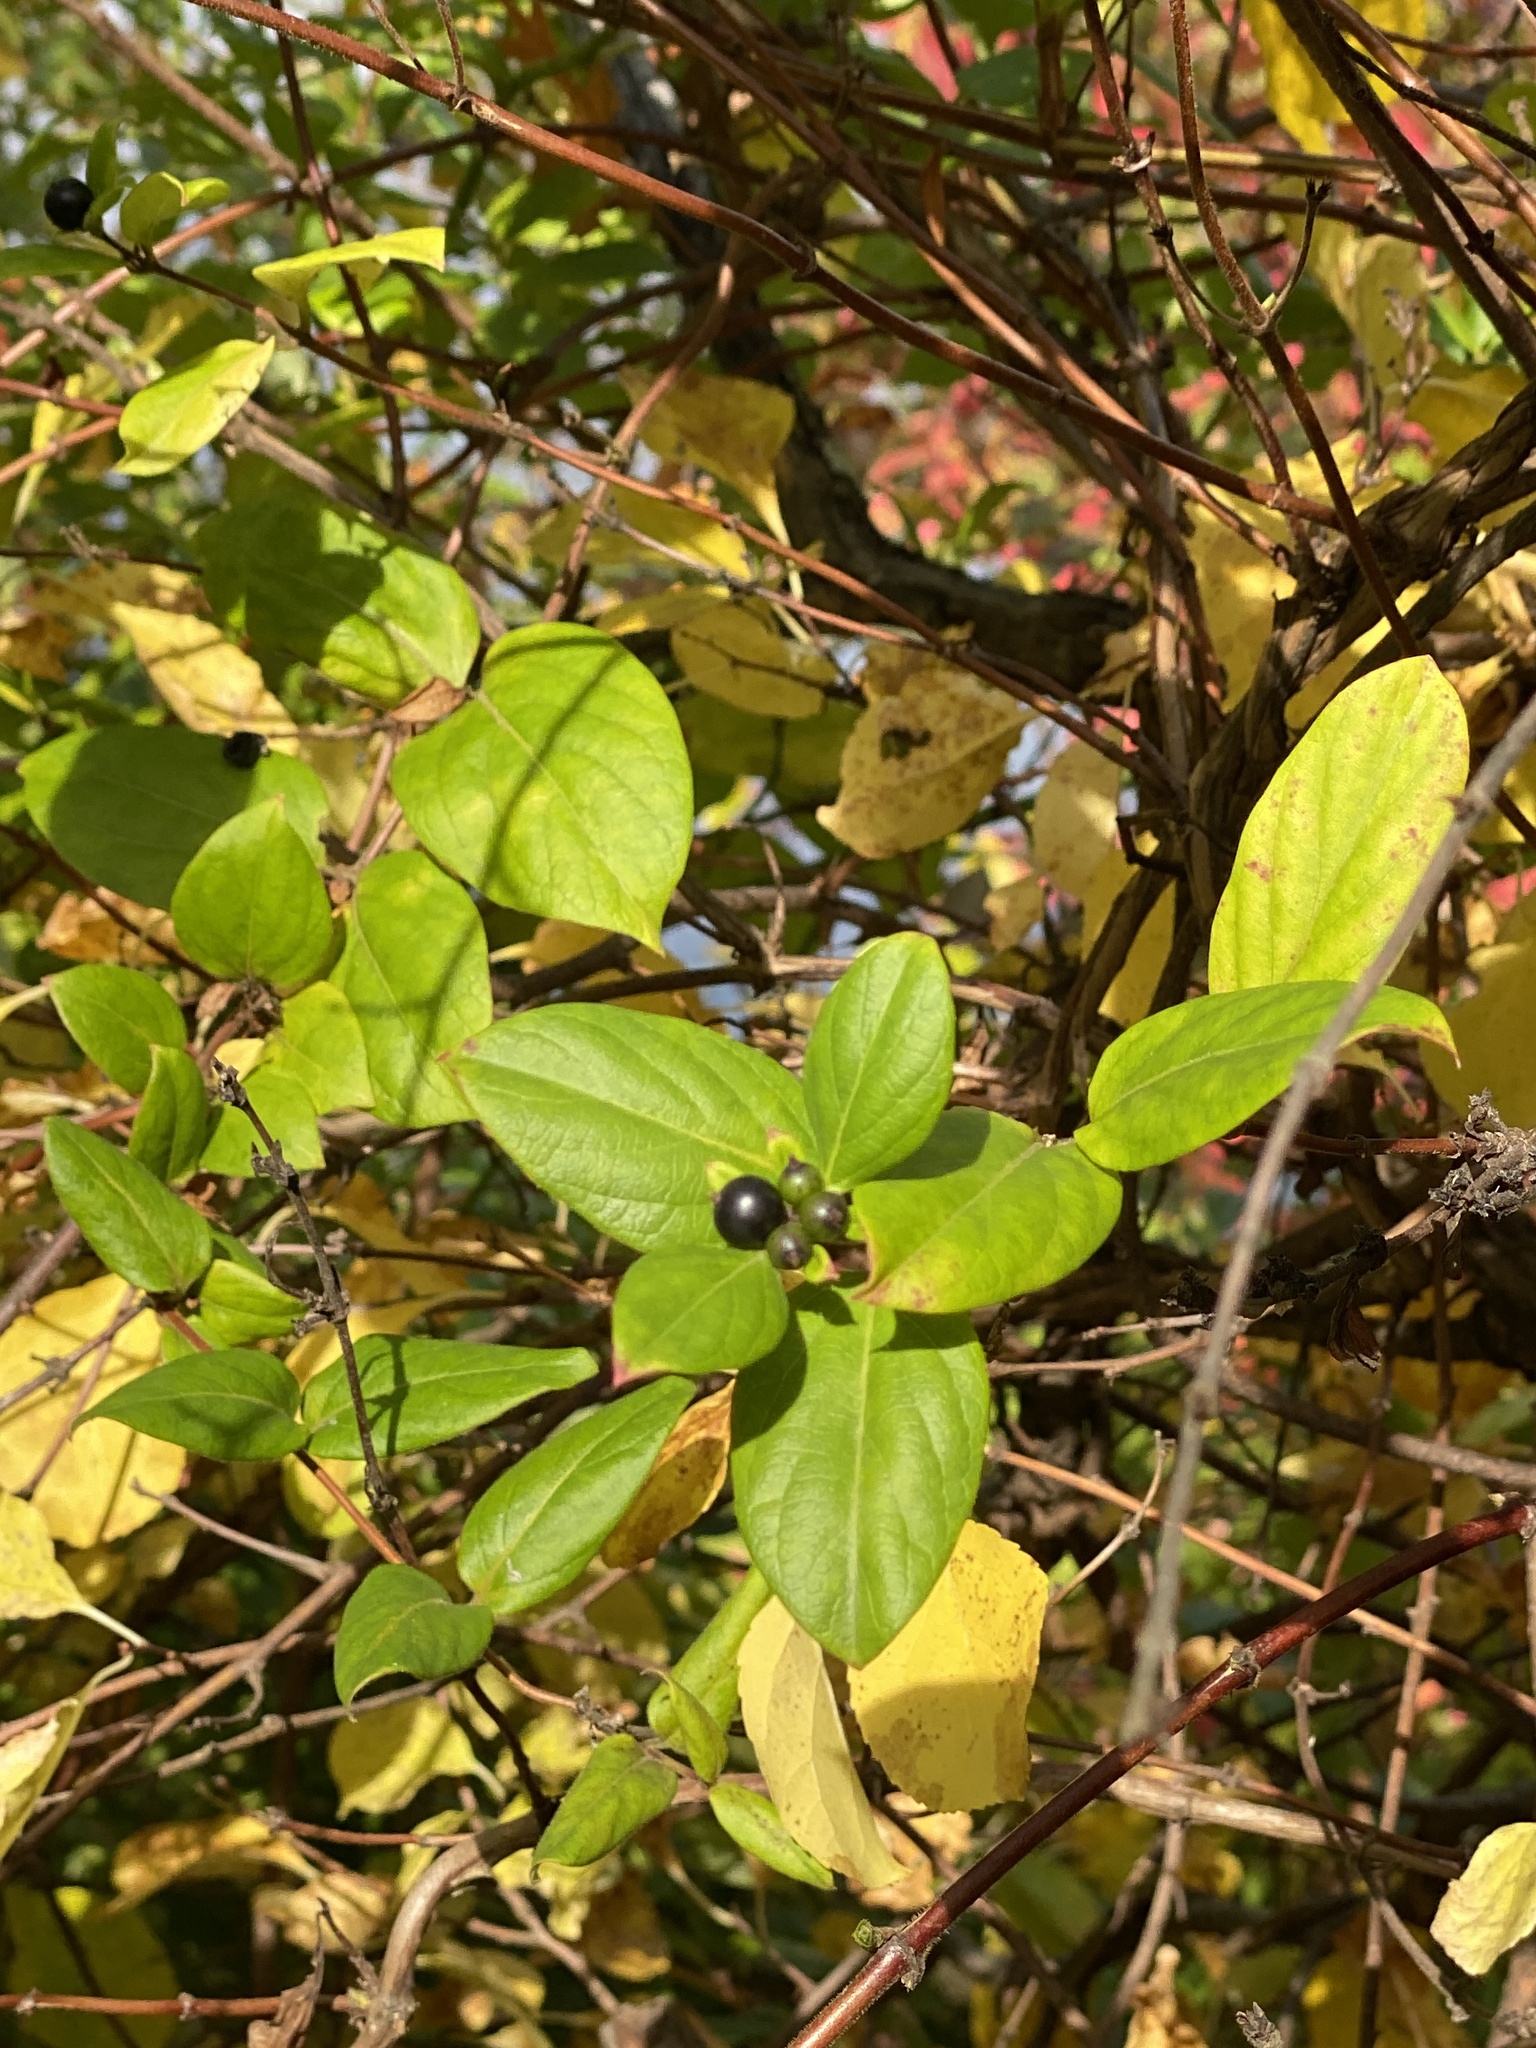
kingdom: Plantae
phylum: Tracheophyta
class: Magnoliopsida
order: Dipsacales
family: Caprifoliaceae
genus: Lonicera
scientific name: Lonicera japonica
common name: Japanese honeysuckle
